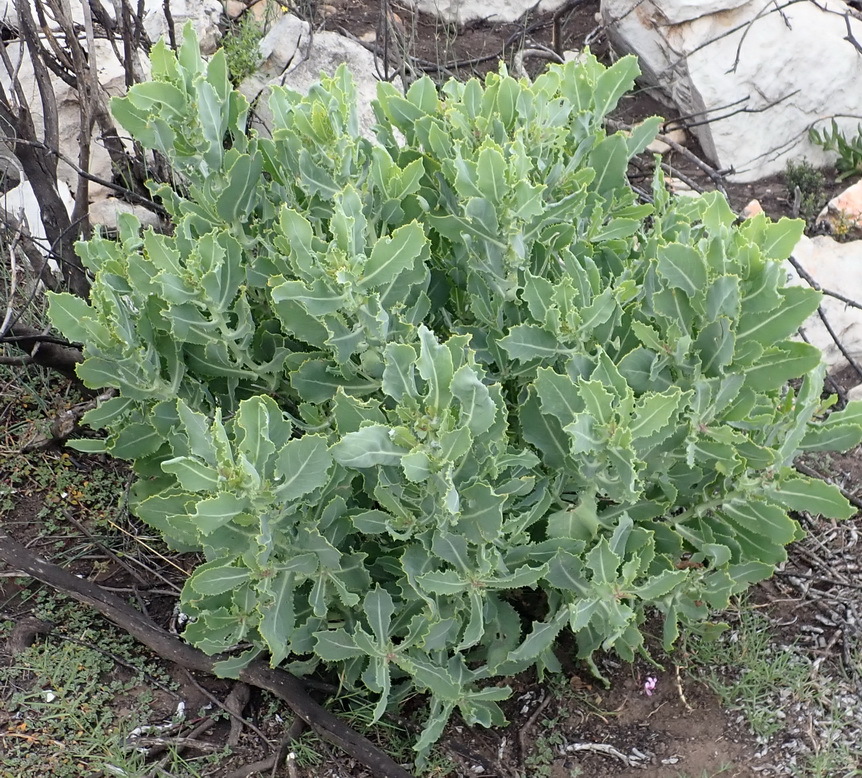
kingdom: Plantae
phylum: Tracheophyta
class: Magnoliopsida
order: Asterales
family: Asteraceae
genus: Othonna
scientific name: Othonna parviflora
